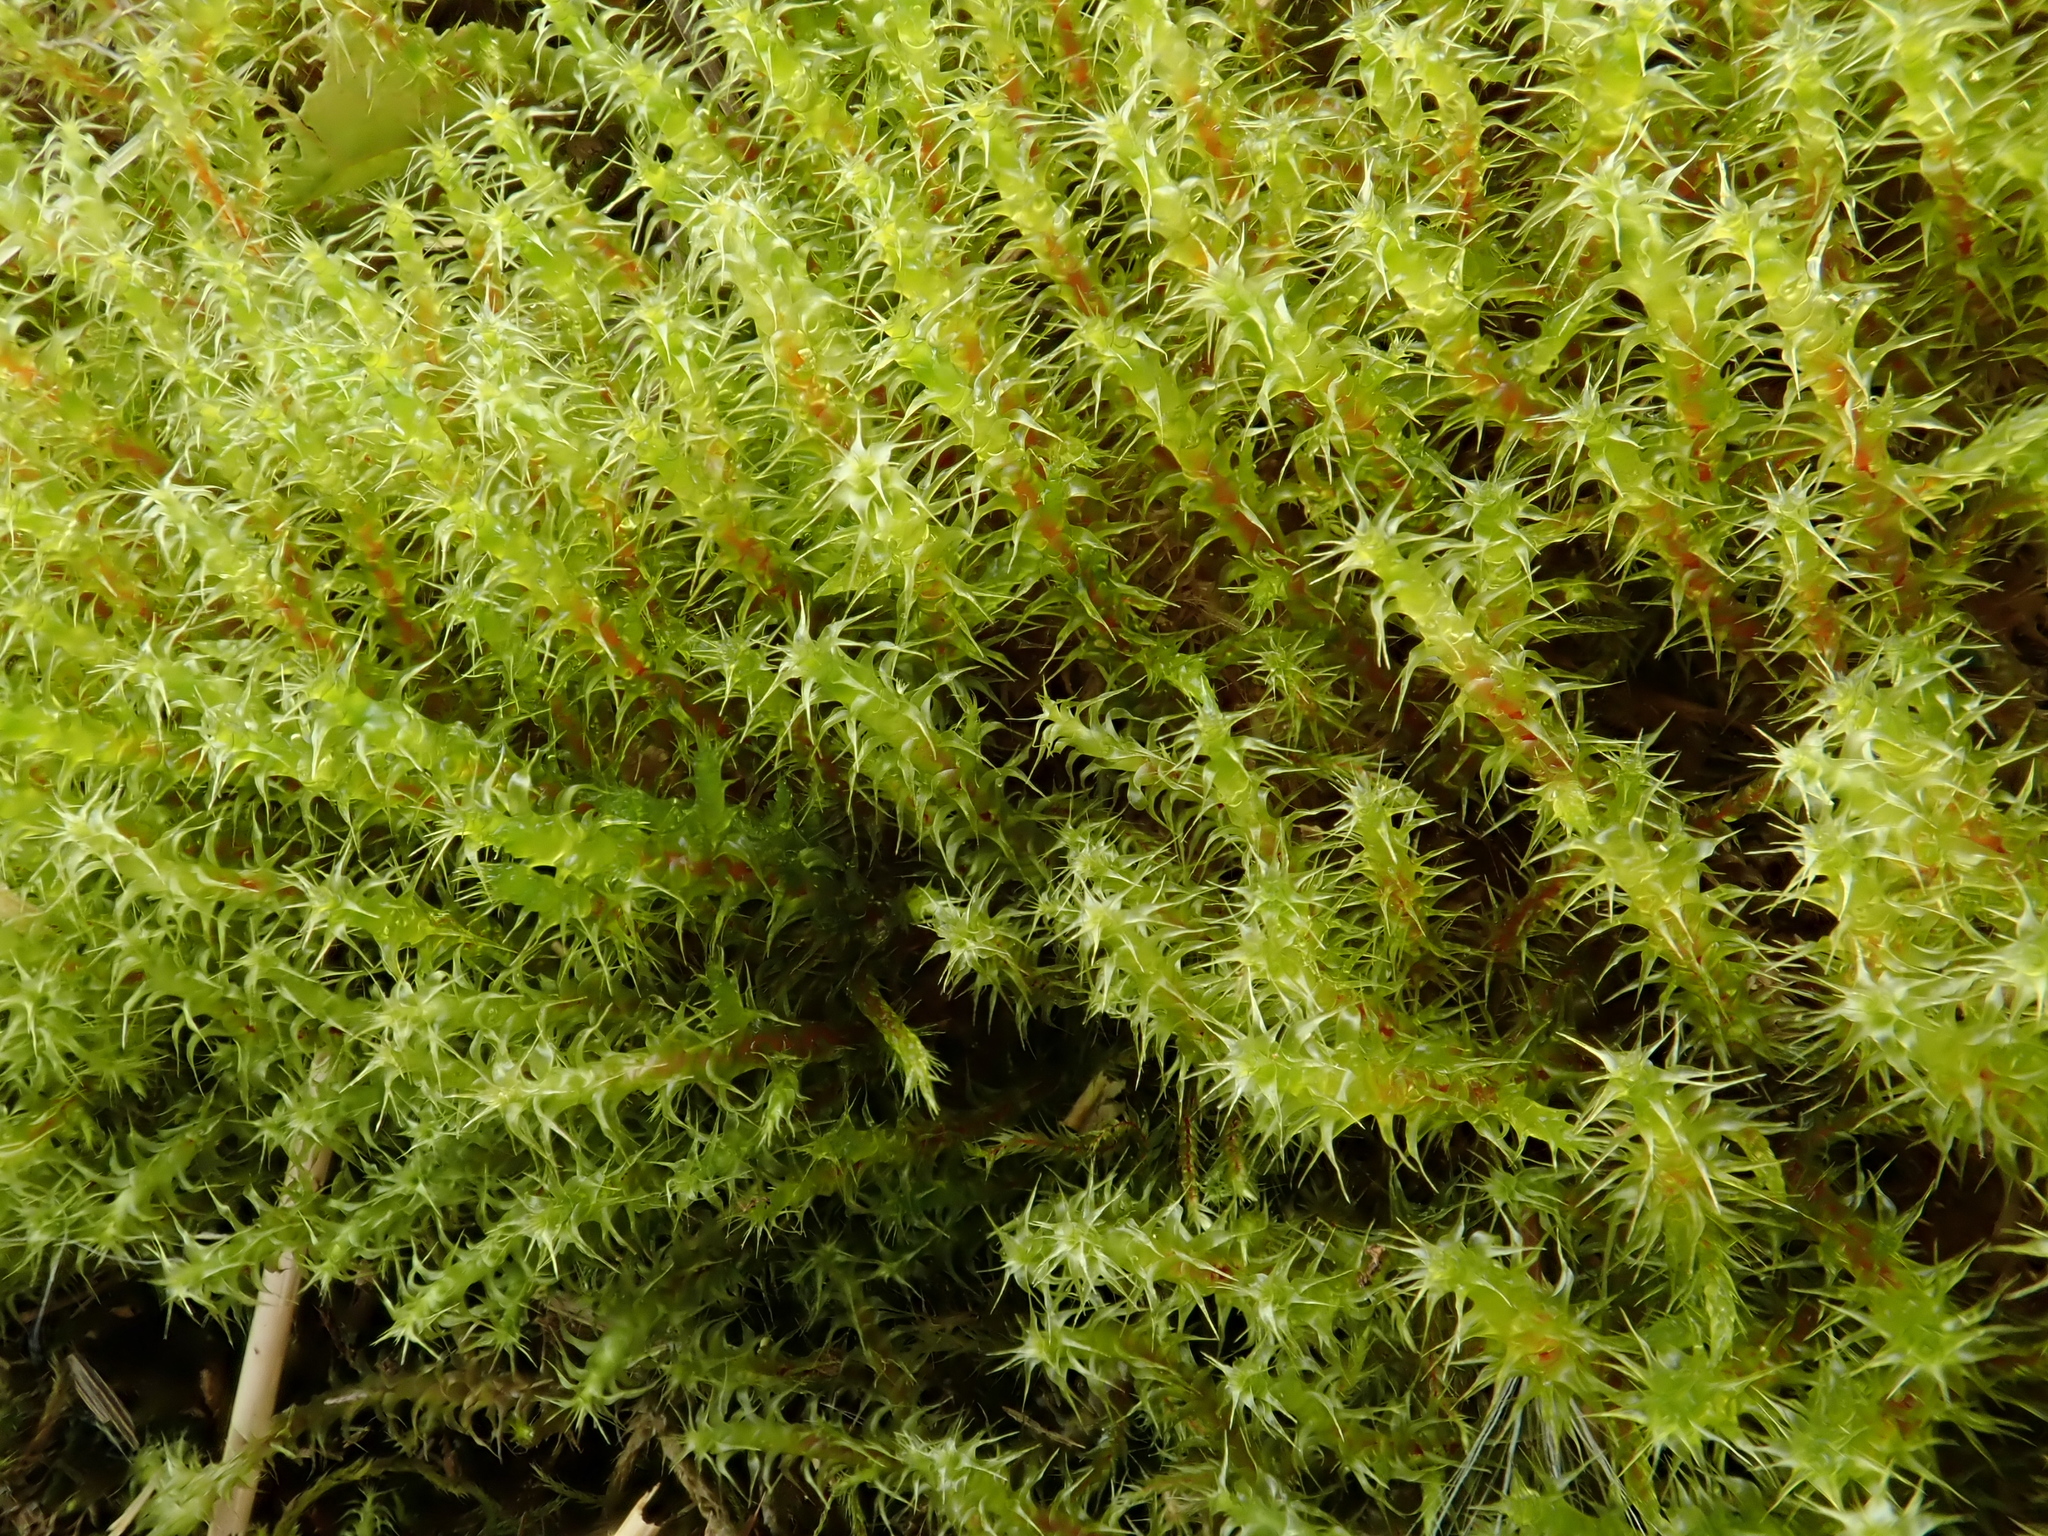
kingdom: Plantae
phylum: Bryophyta
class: Bryopsida
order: Hypnales
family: Hylocomiaceae
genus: Rhytidiadelphus
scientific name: Rhytidiadelphus squarrosus
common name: Springy turf-moss
